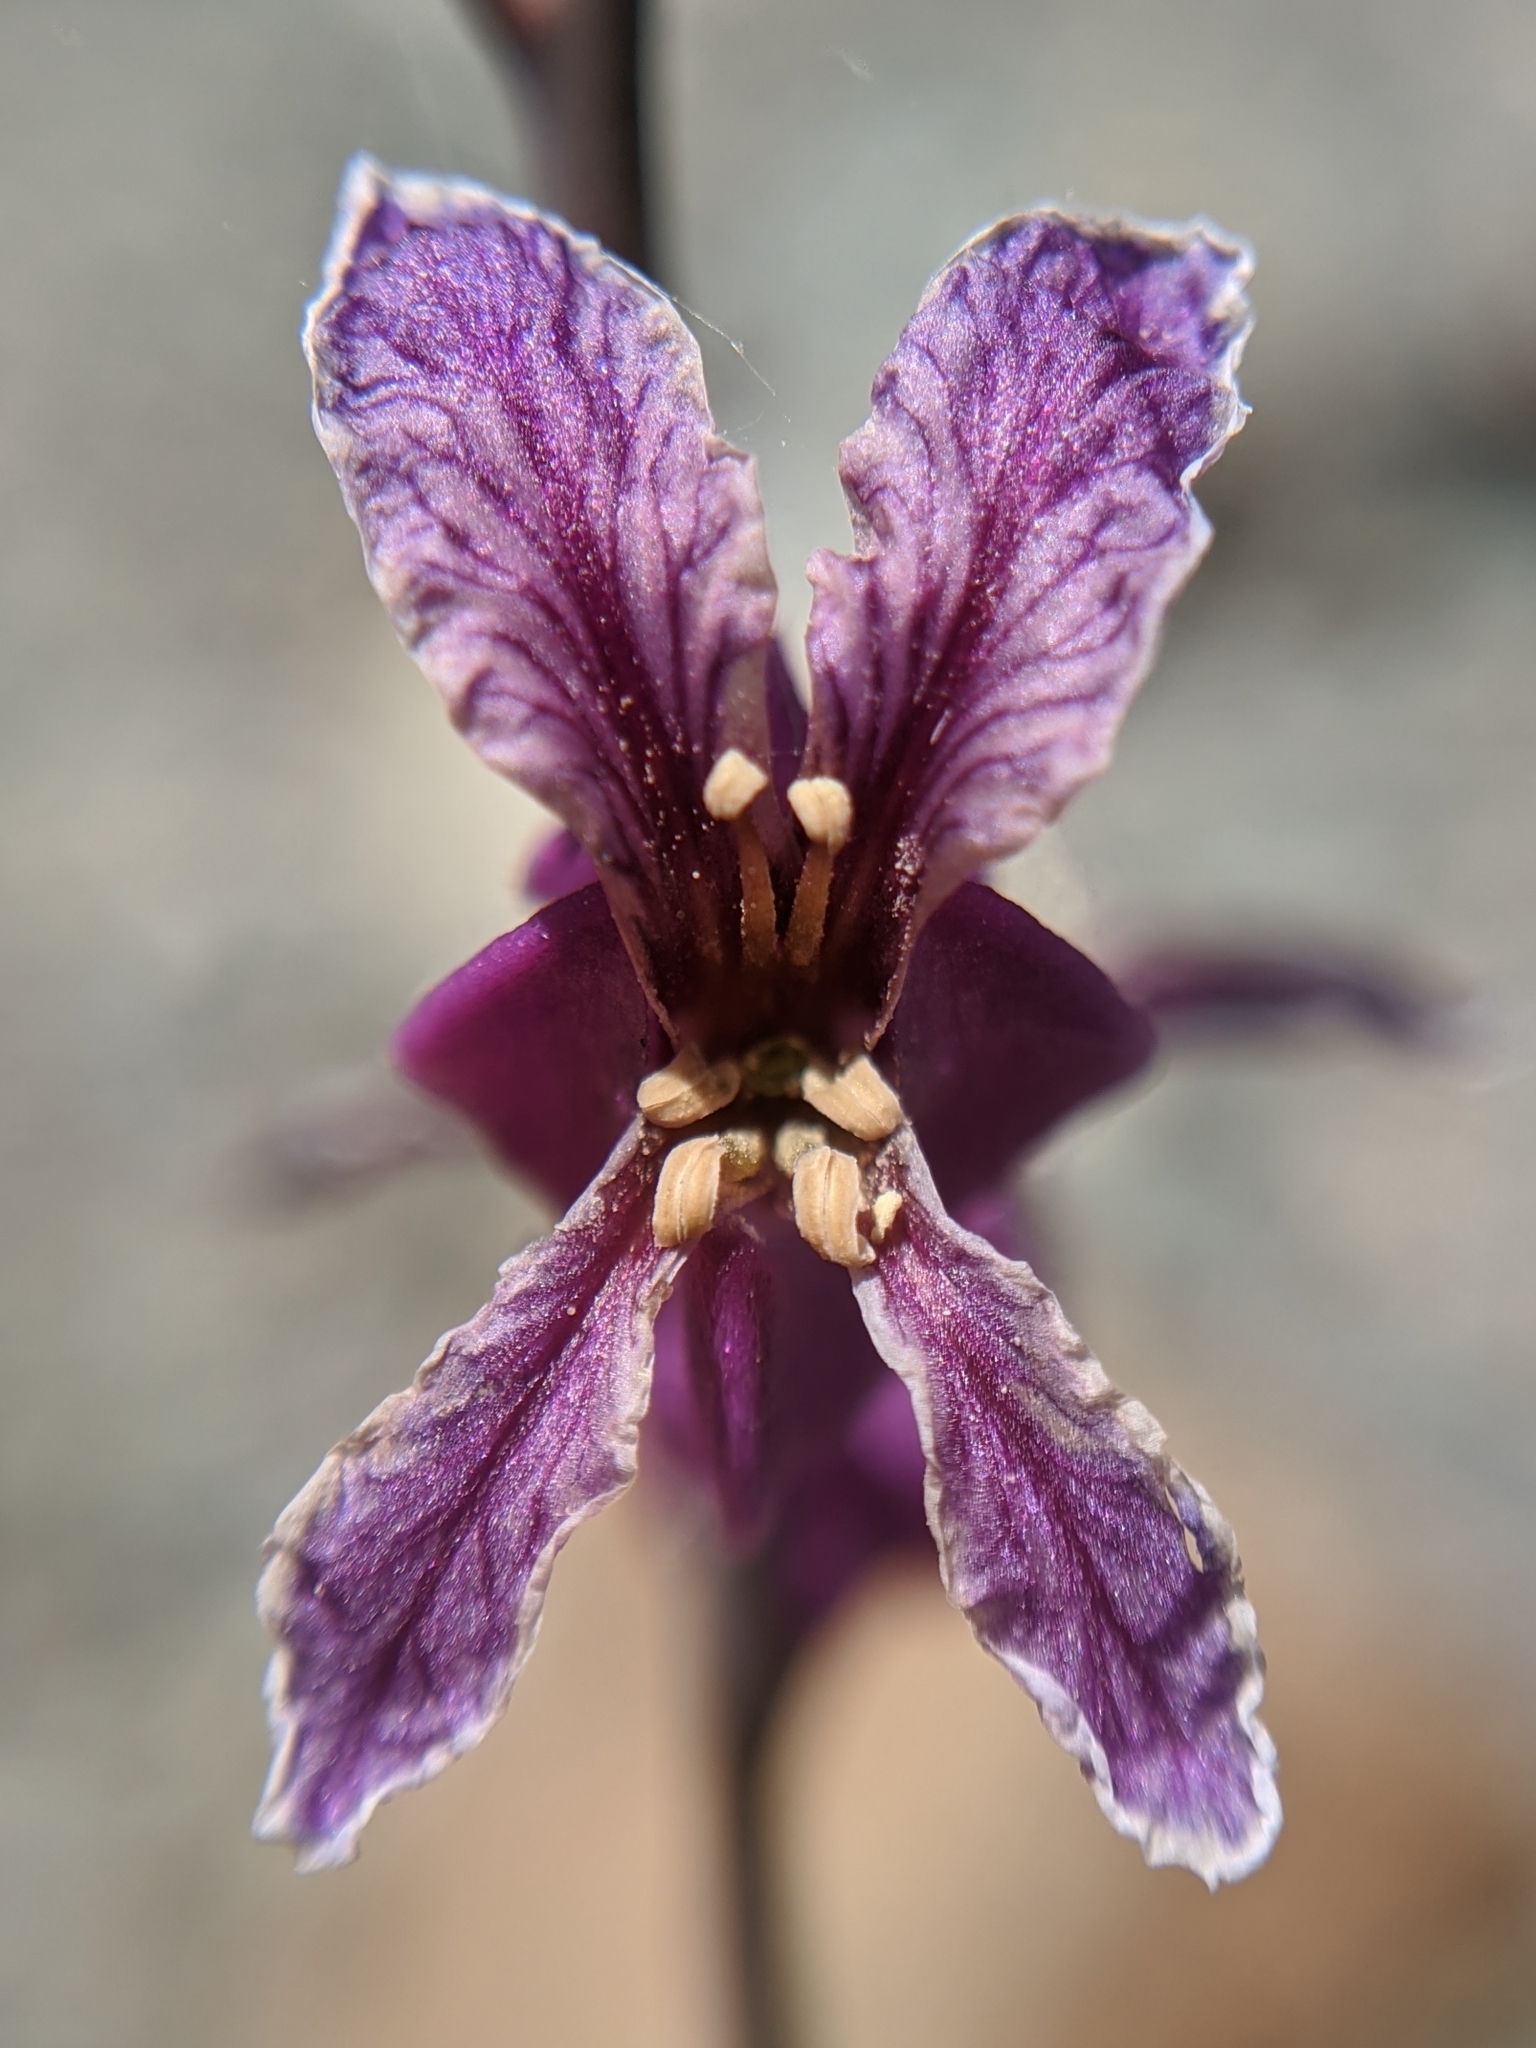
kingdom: Plantae
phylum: Tracheophyta
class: Magnoliopsida
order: Brassicales
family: Brassicaceae
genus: Streptanthus
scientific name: Streptanthus glandulosus
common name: Jewel-flower
